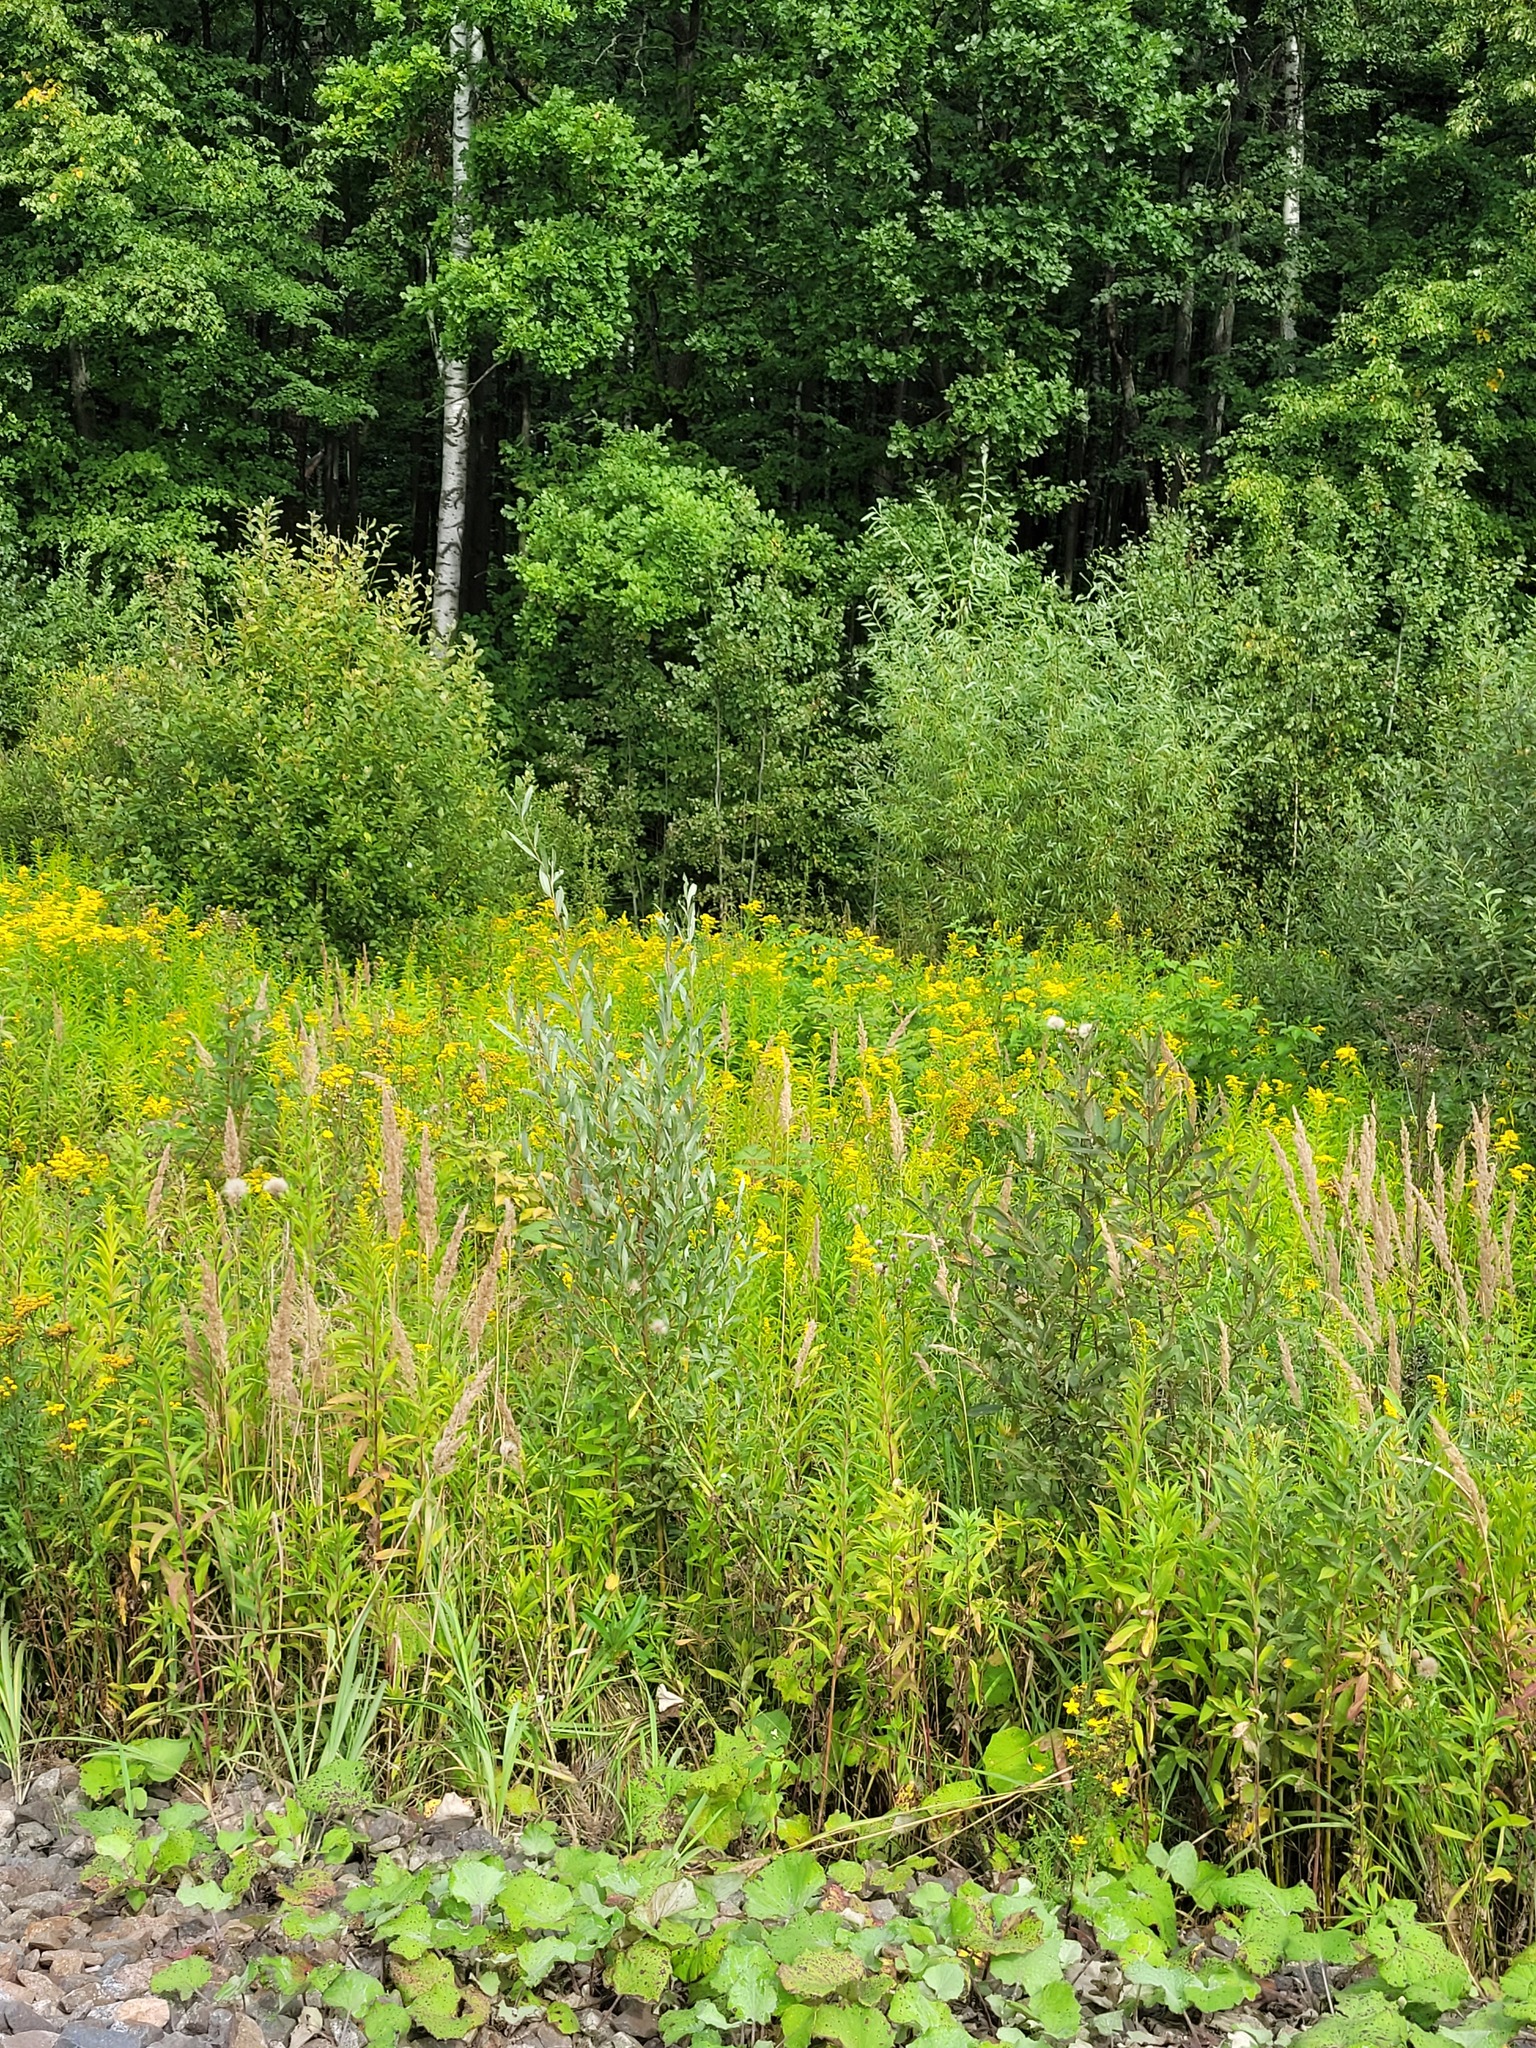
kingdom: Plantae
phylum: Tracheophyta
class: Magnoliopsida
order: Malpighiales
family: Salicaceae
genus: Salix
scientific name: Salix alba
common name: White willow
